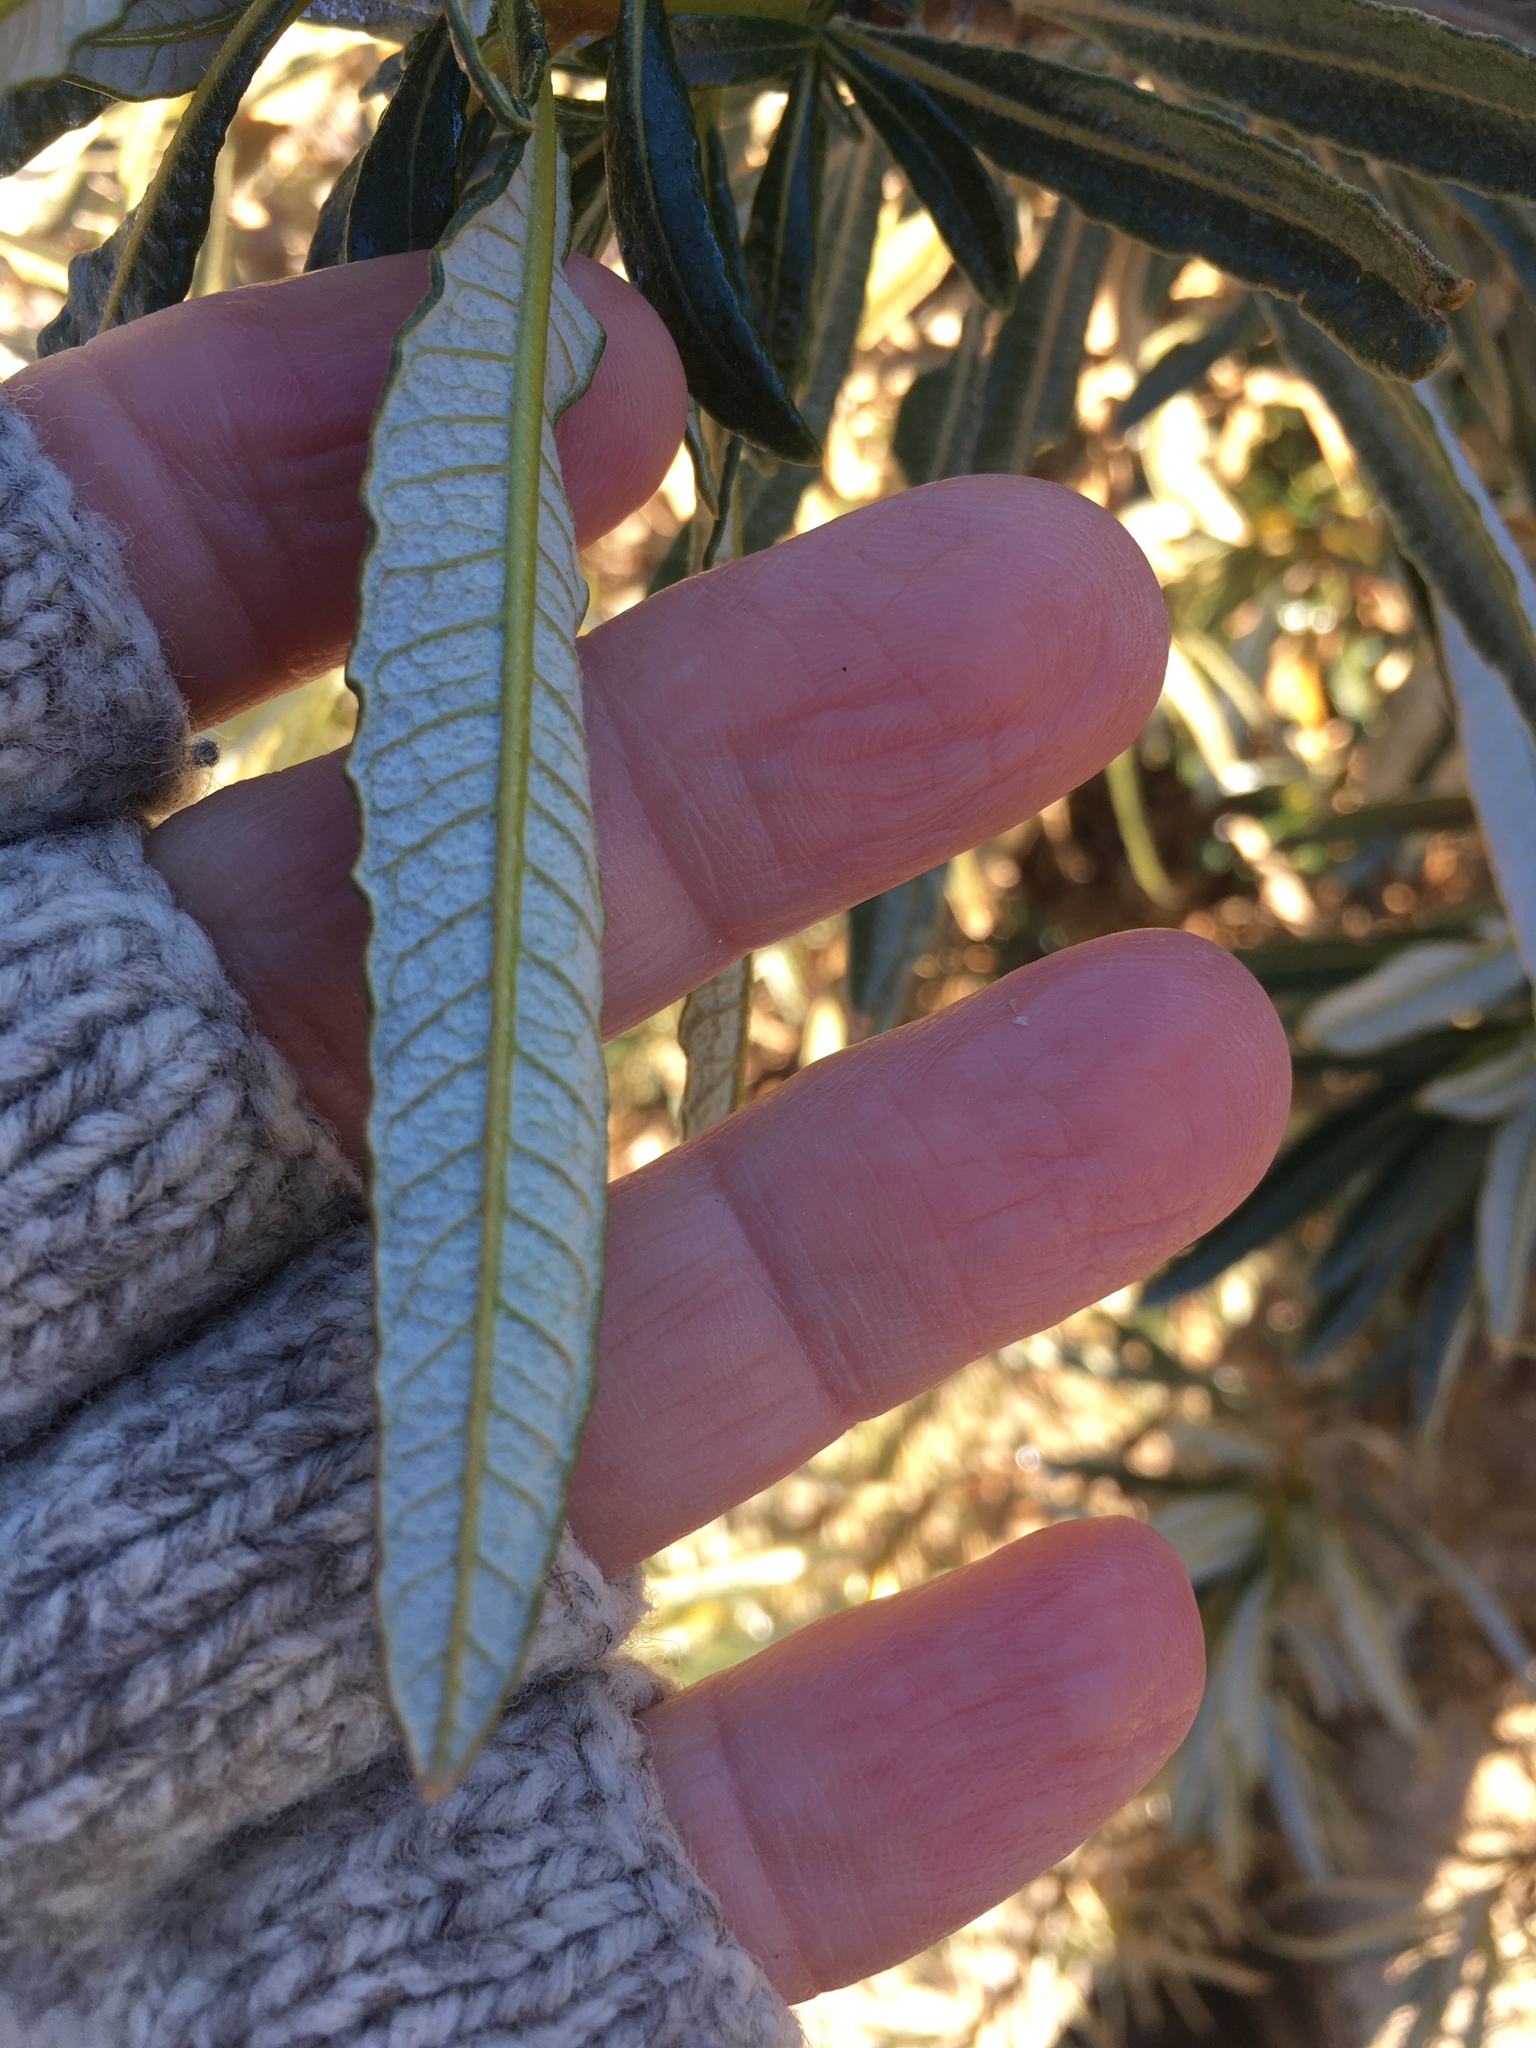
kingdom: Plantae
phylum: Tracheophyta
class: Magnoliopsida
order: Boraginales
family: Namaceae
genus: Eriodictyon
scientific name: Eriodictyon trichocalyx
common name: Hairy yerba-santa
